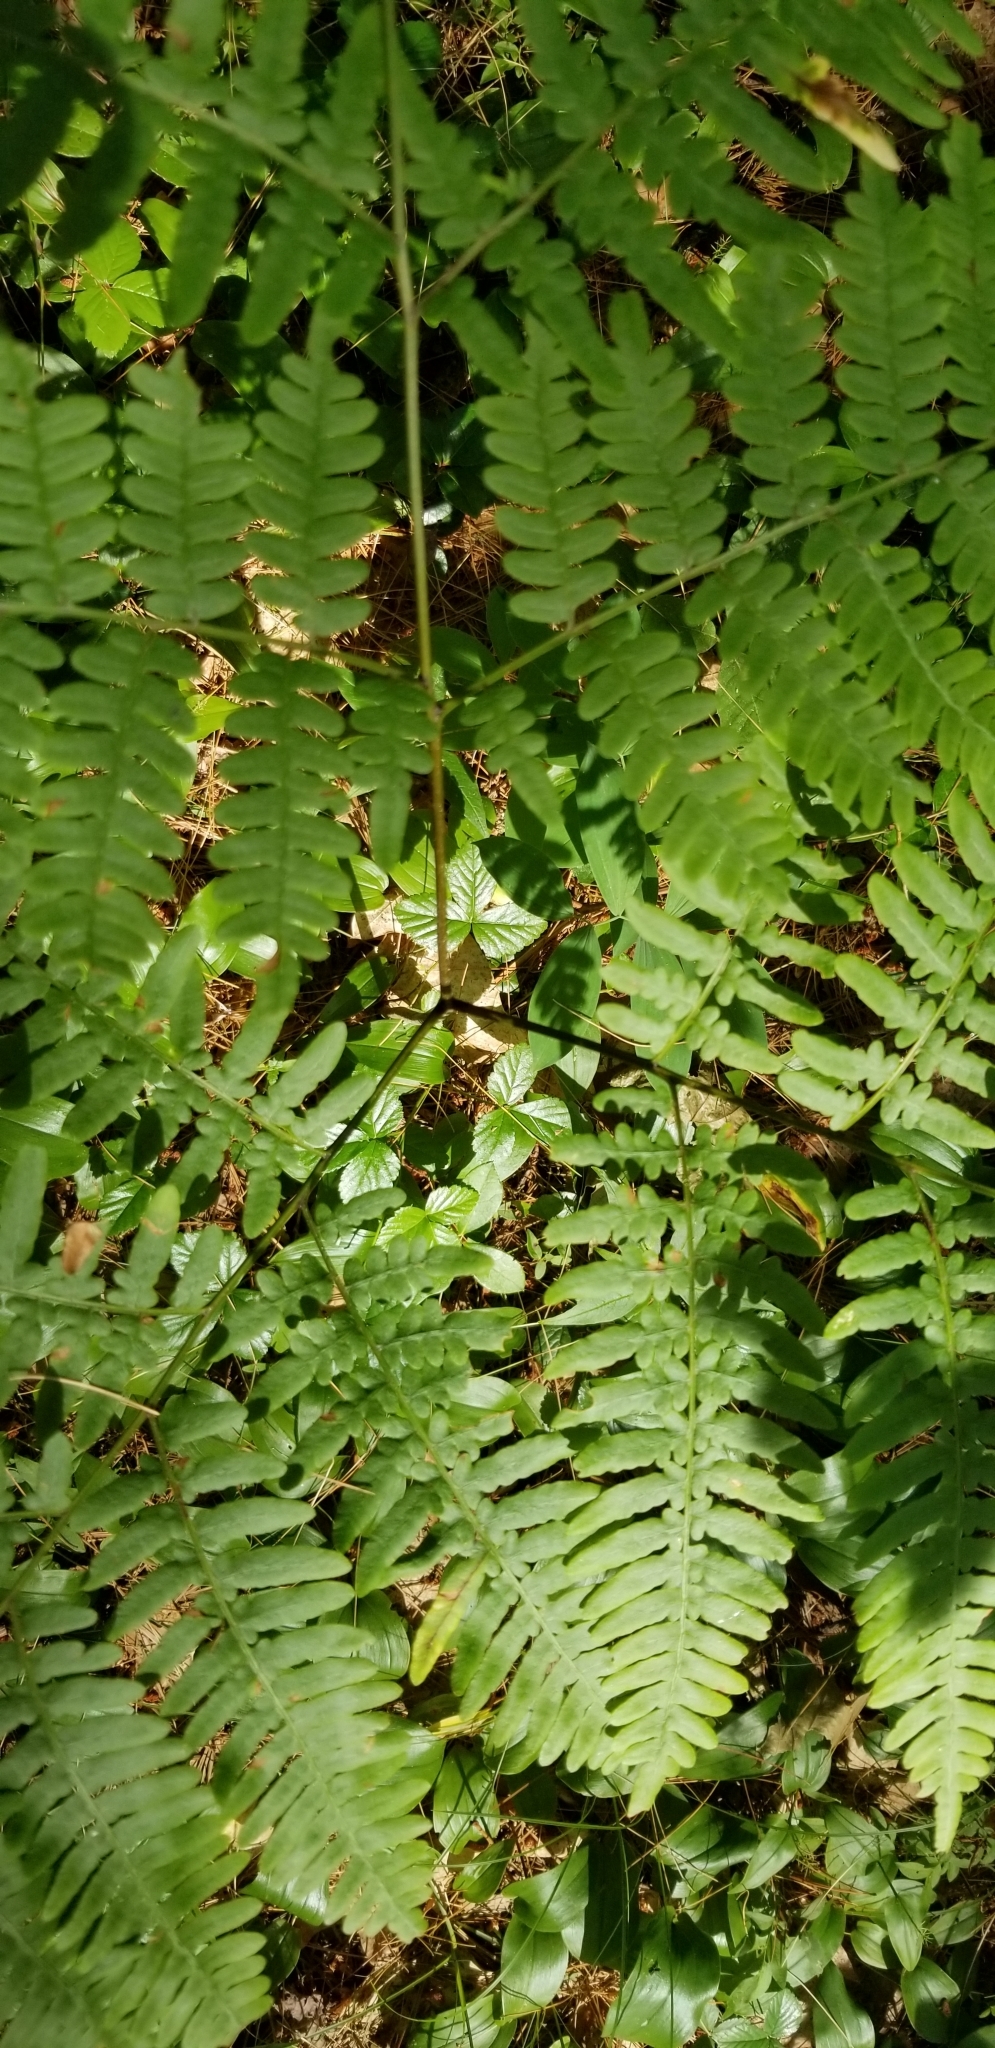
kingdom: Plantae
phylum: Tracheophyta
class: Polypodiopsida
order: Polypodiales
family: Dennstaedtiaceae
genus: Pteridium
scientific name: Pteridium aquilinum
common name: Bracken
